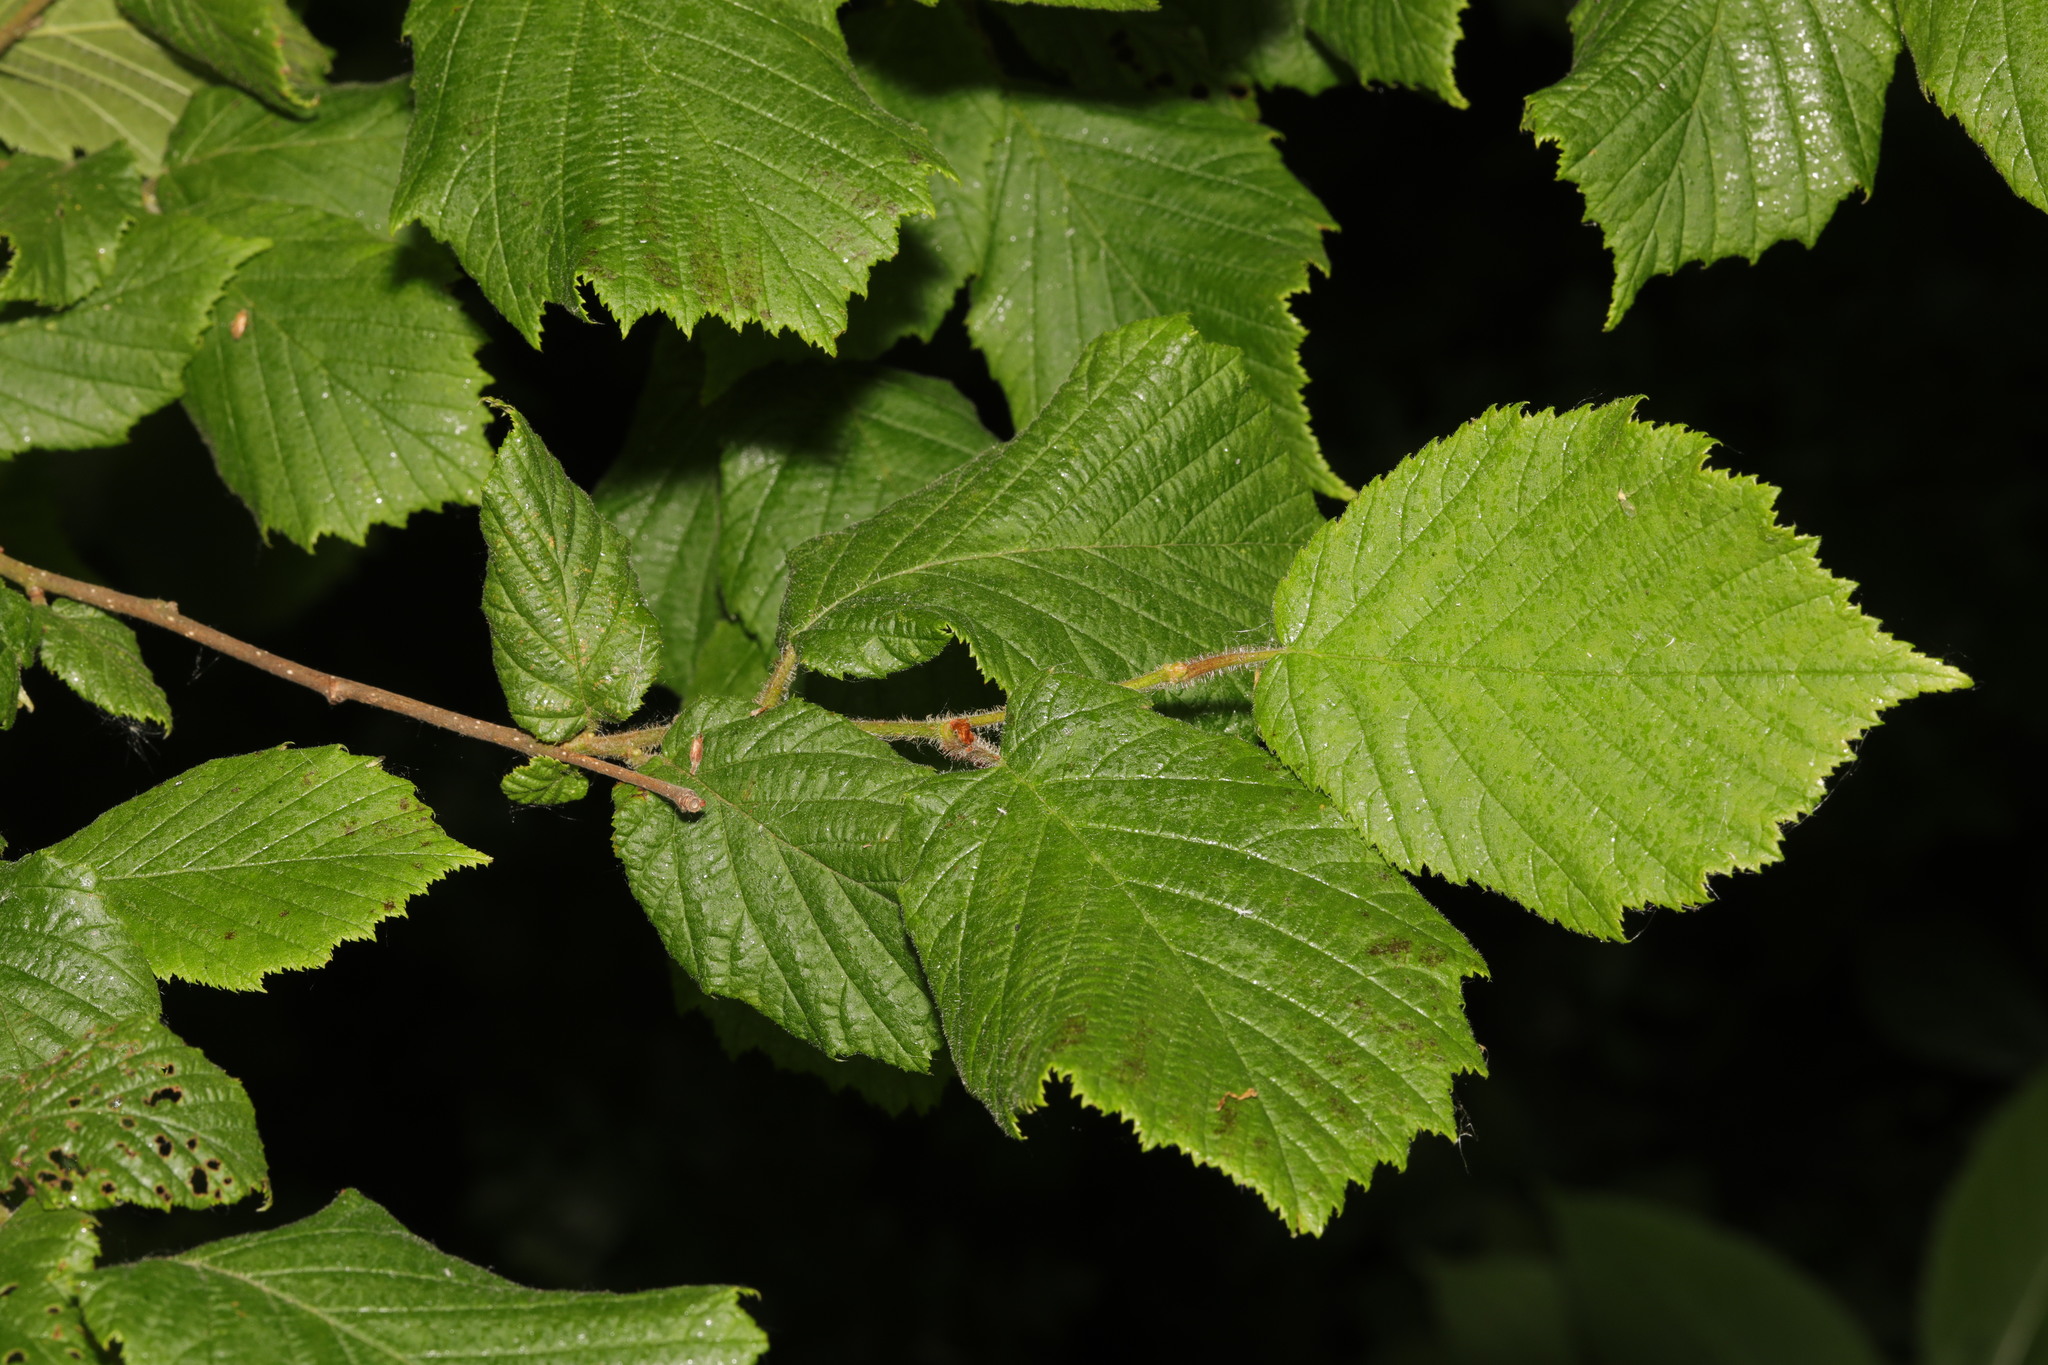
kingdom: Plantae
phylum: Tracheophyta
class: Magnoliopsida
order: Fagales
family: Betulaceae
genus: Corylus
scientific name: Corylus avellana
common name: European hazel
